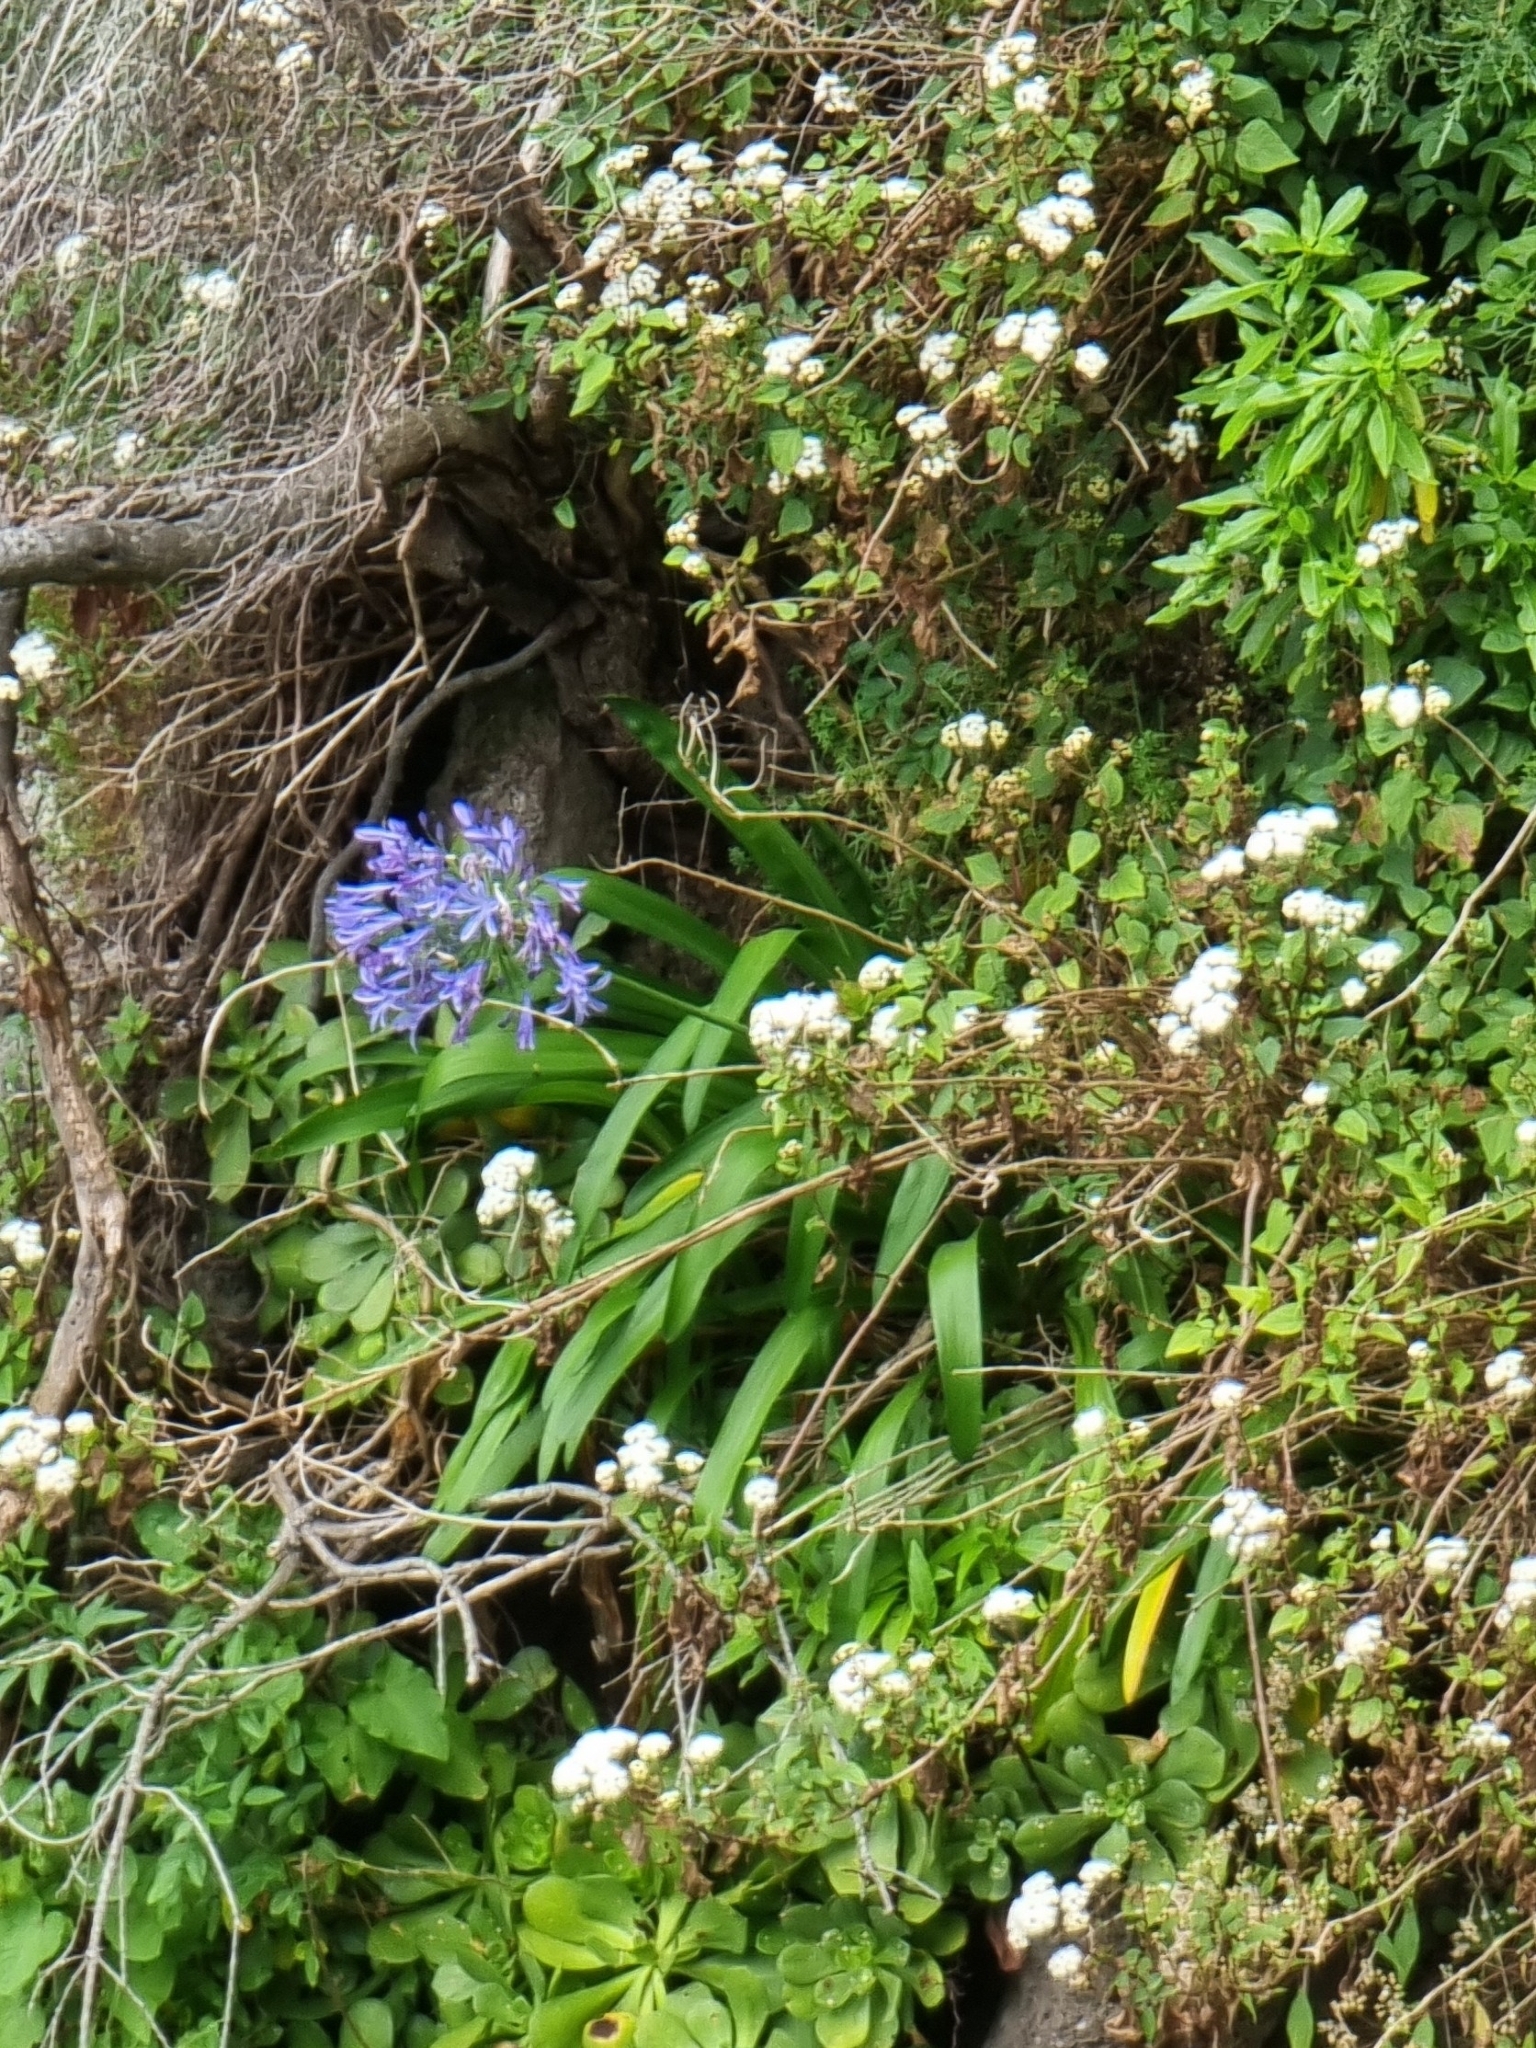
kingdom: Plantae
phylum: Tracheophyta
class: Liliopsida
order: Asparagales
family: Amaryllidaceae
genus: Agapanthus
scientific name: Agapanthus praecox
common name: African-lily
